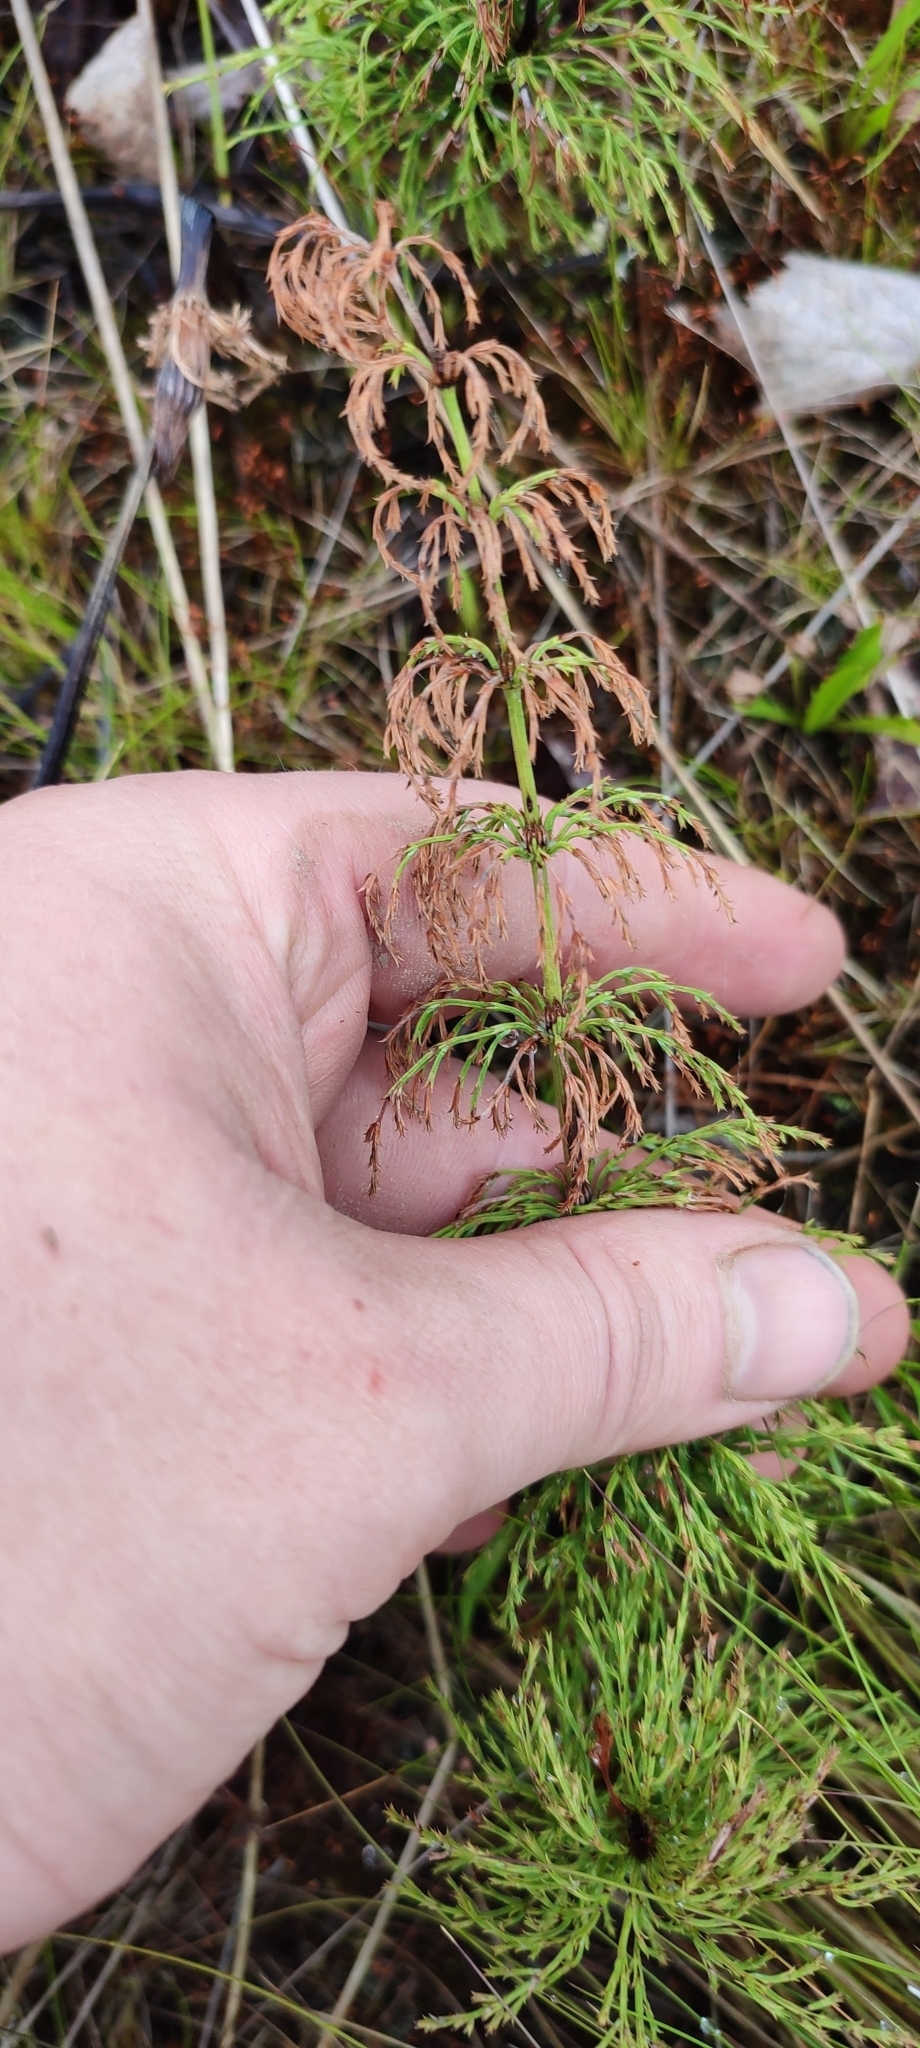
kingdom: Plantae
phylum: Tracheophyta
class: Polypodiopsida
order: Equisetales
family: Equisetaceae
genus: Equisetum
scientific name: Equisetum sylvaticum
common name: Wood horsetail
